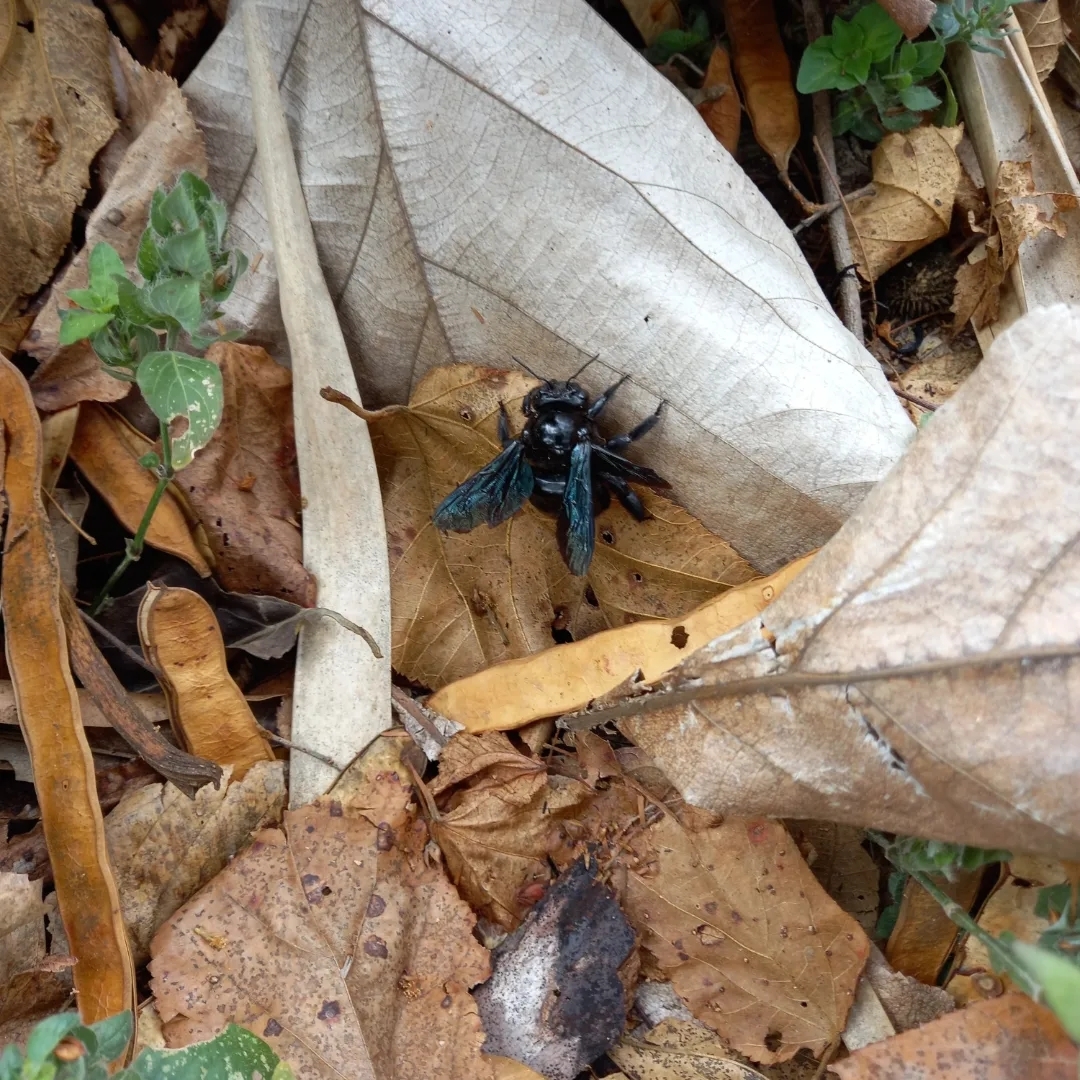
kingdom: Animalia
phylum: Arthropoda
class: Insecta
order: Hymenoptera
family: Apidae
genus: Xylocopa
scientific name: Xylocopa fimbriata
